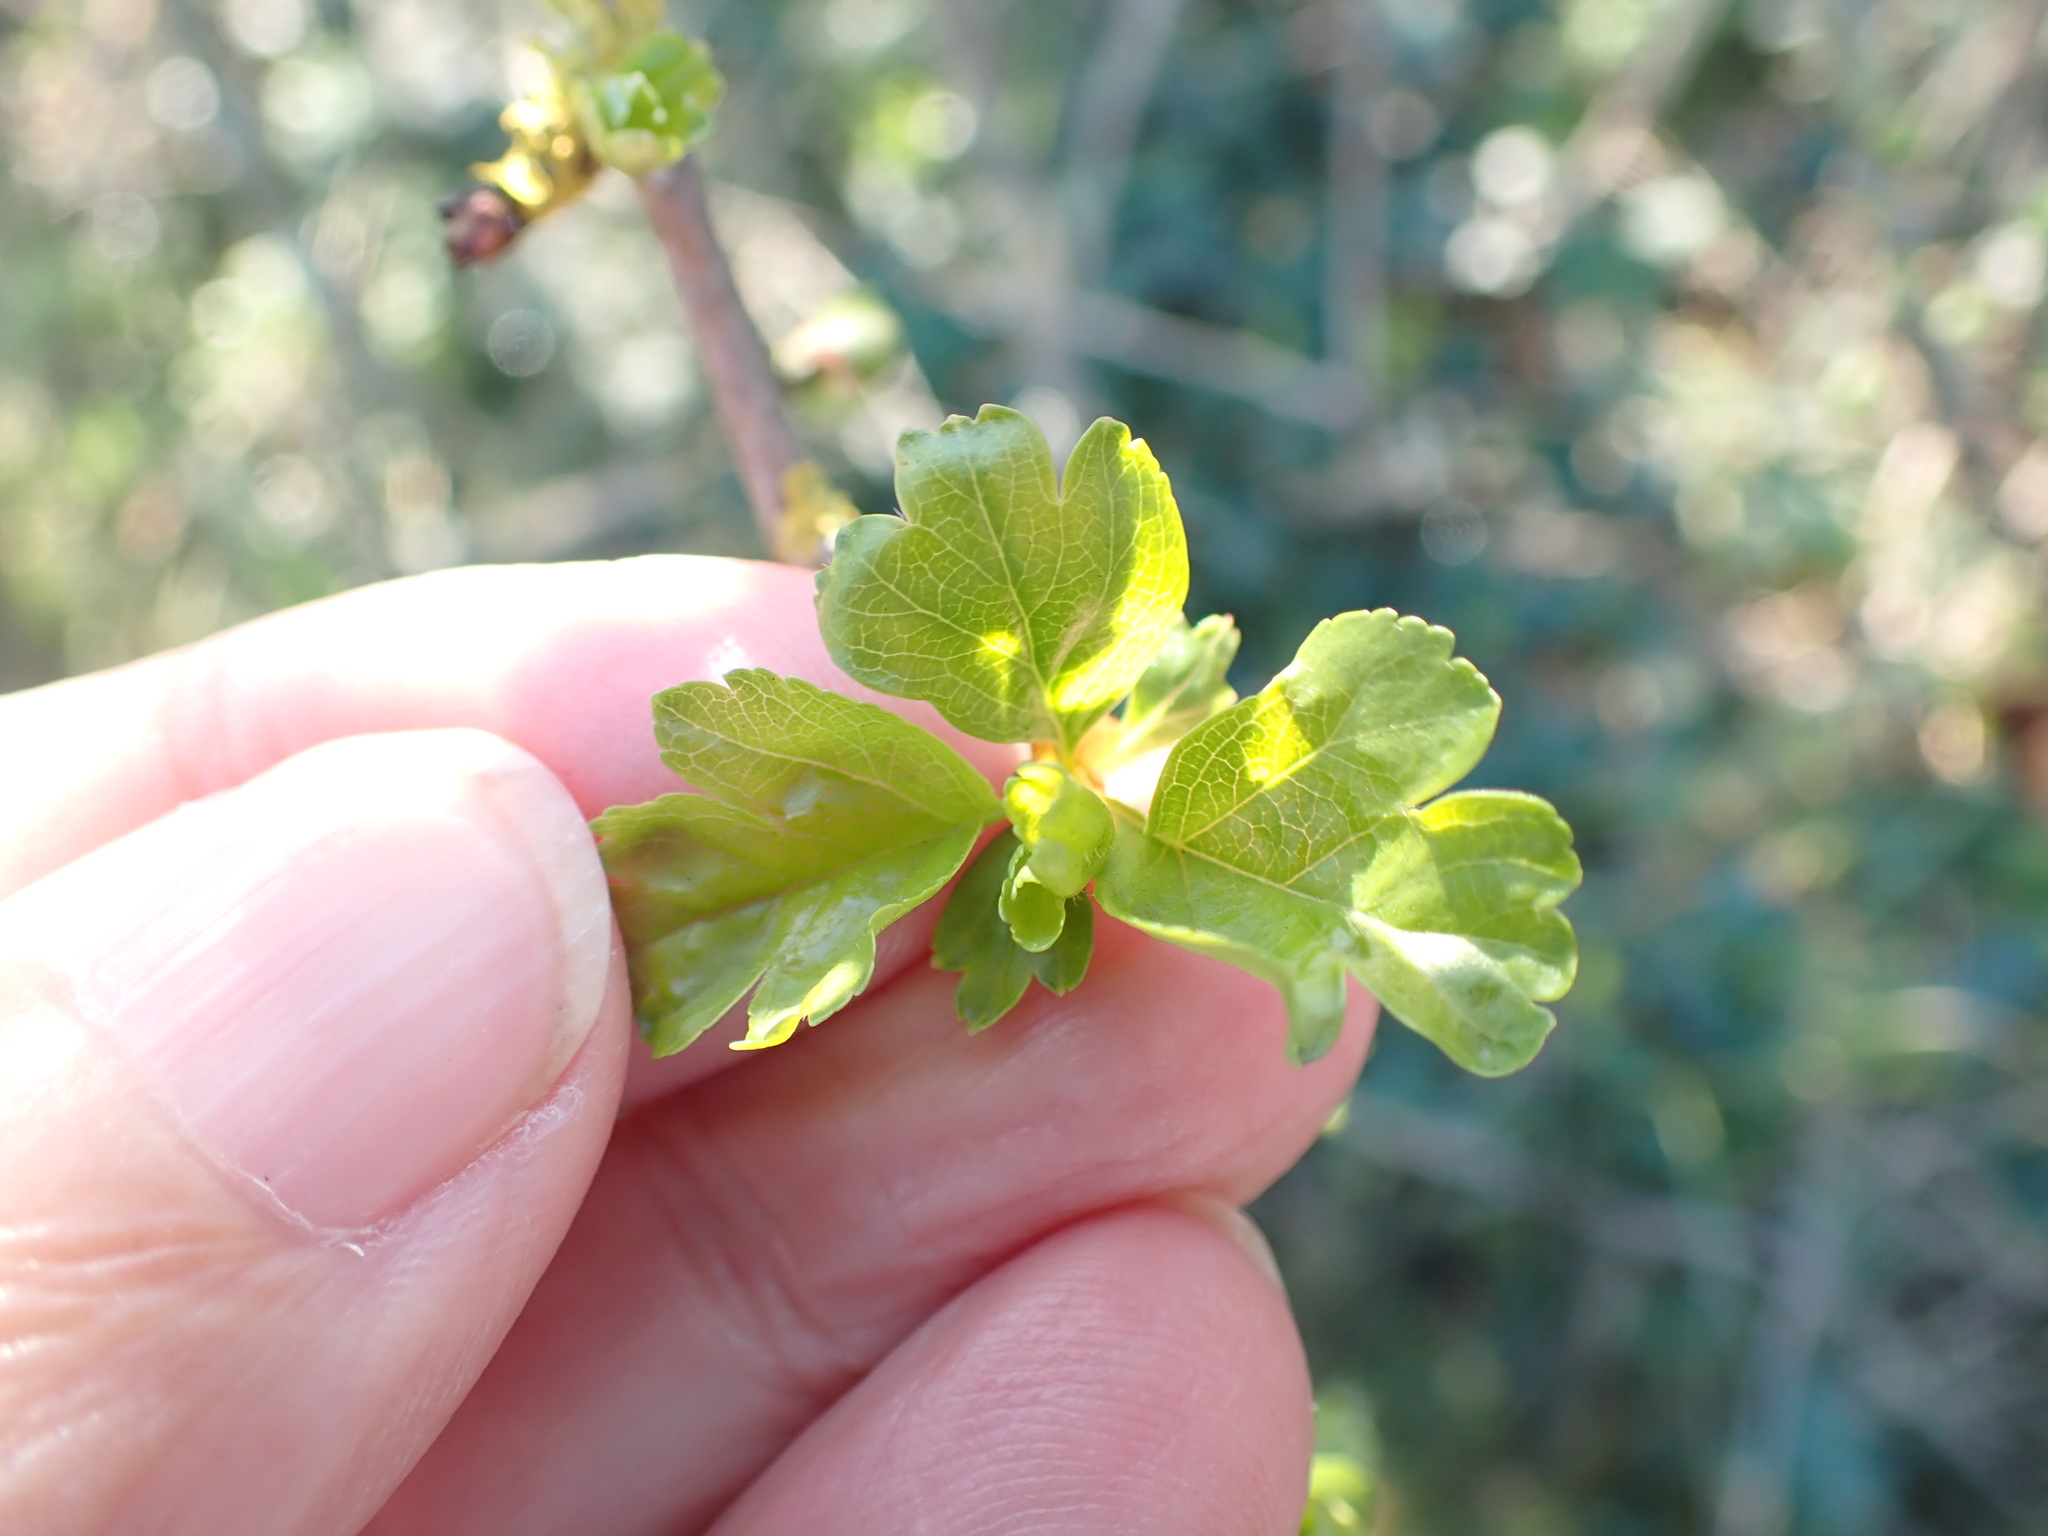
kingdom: Plantae
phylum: Tracheophyta
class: Magnoliopsida
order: Rosales
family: Rosaceae
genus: Crataegus
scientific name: Crataegus monogyna
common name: Hawthorn
